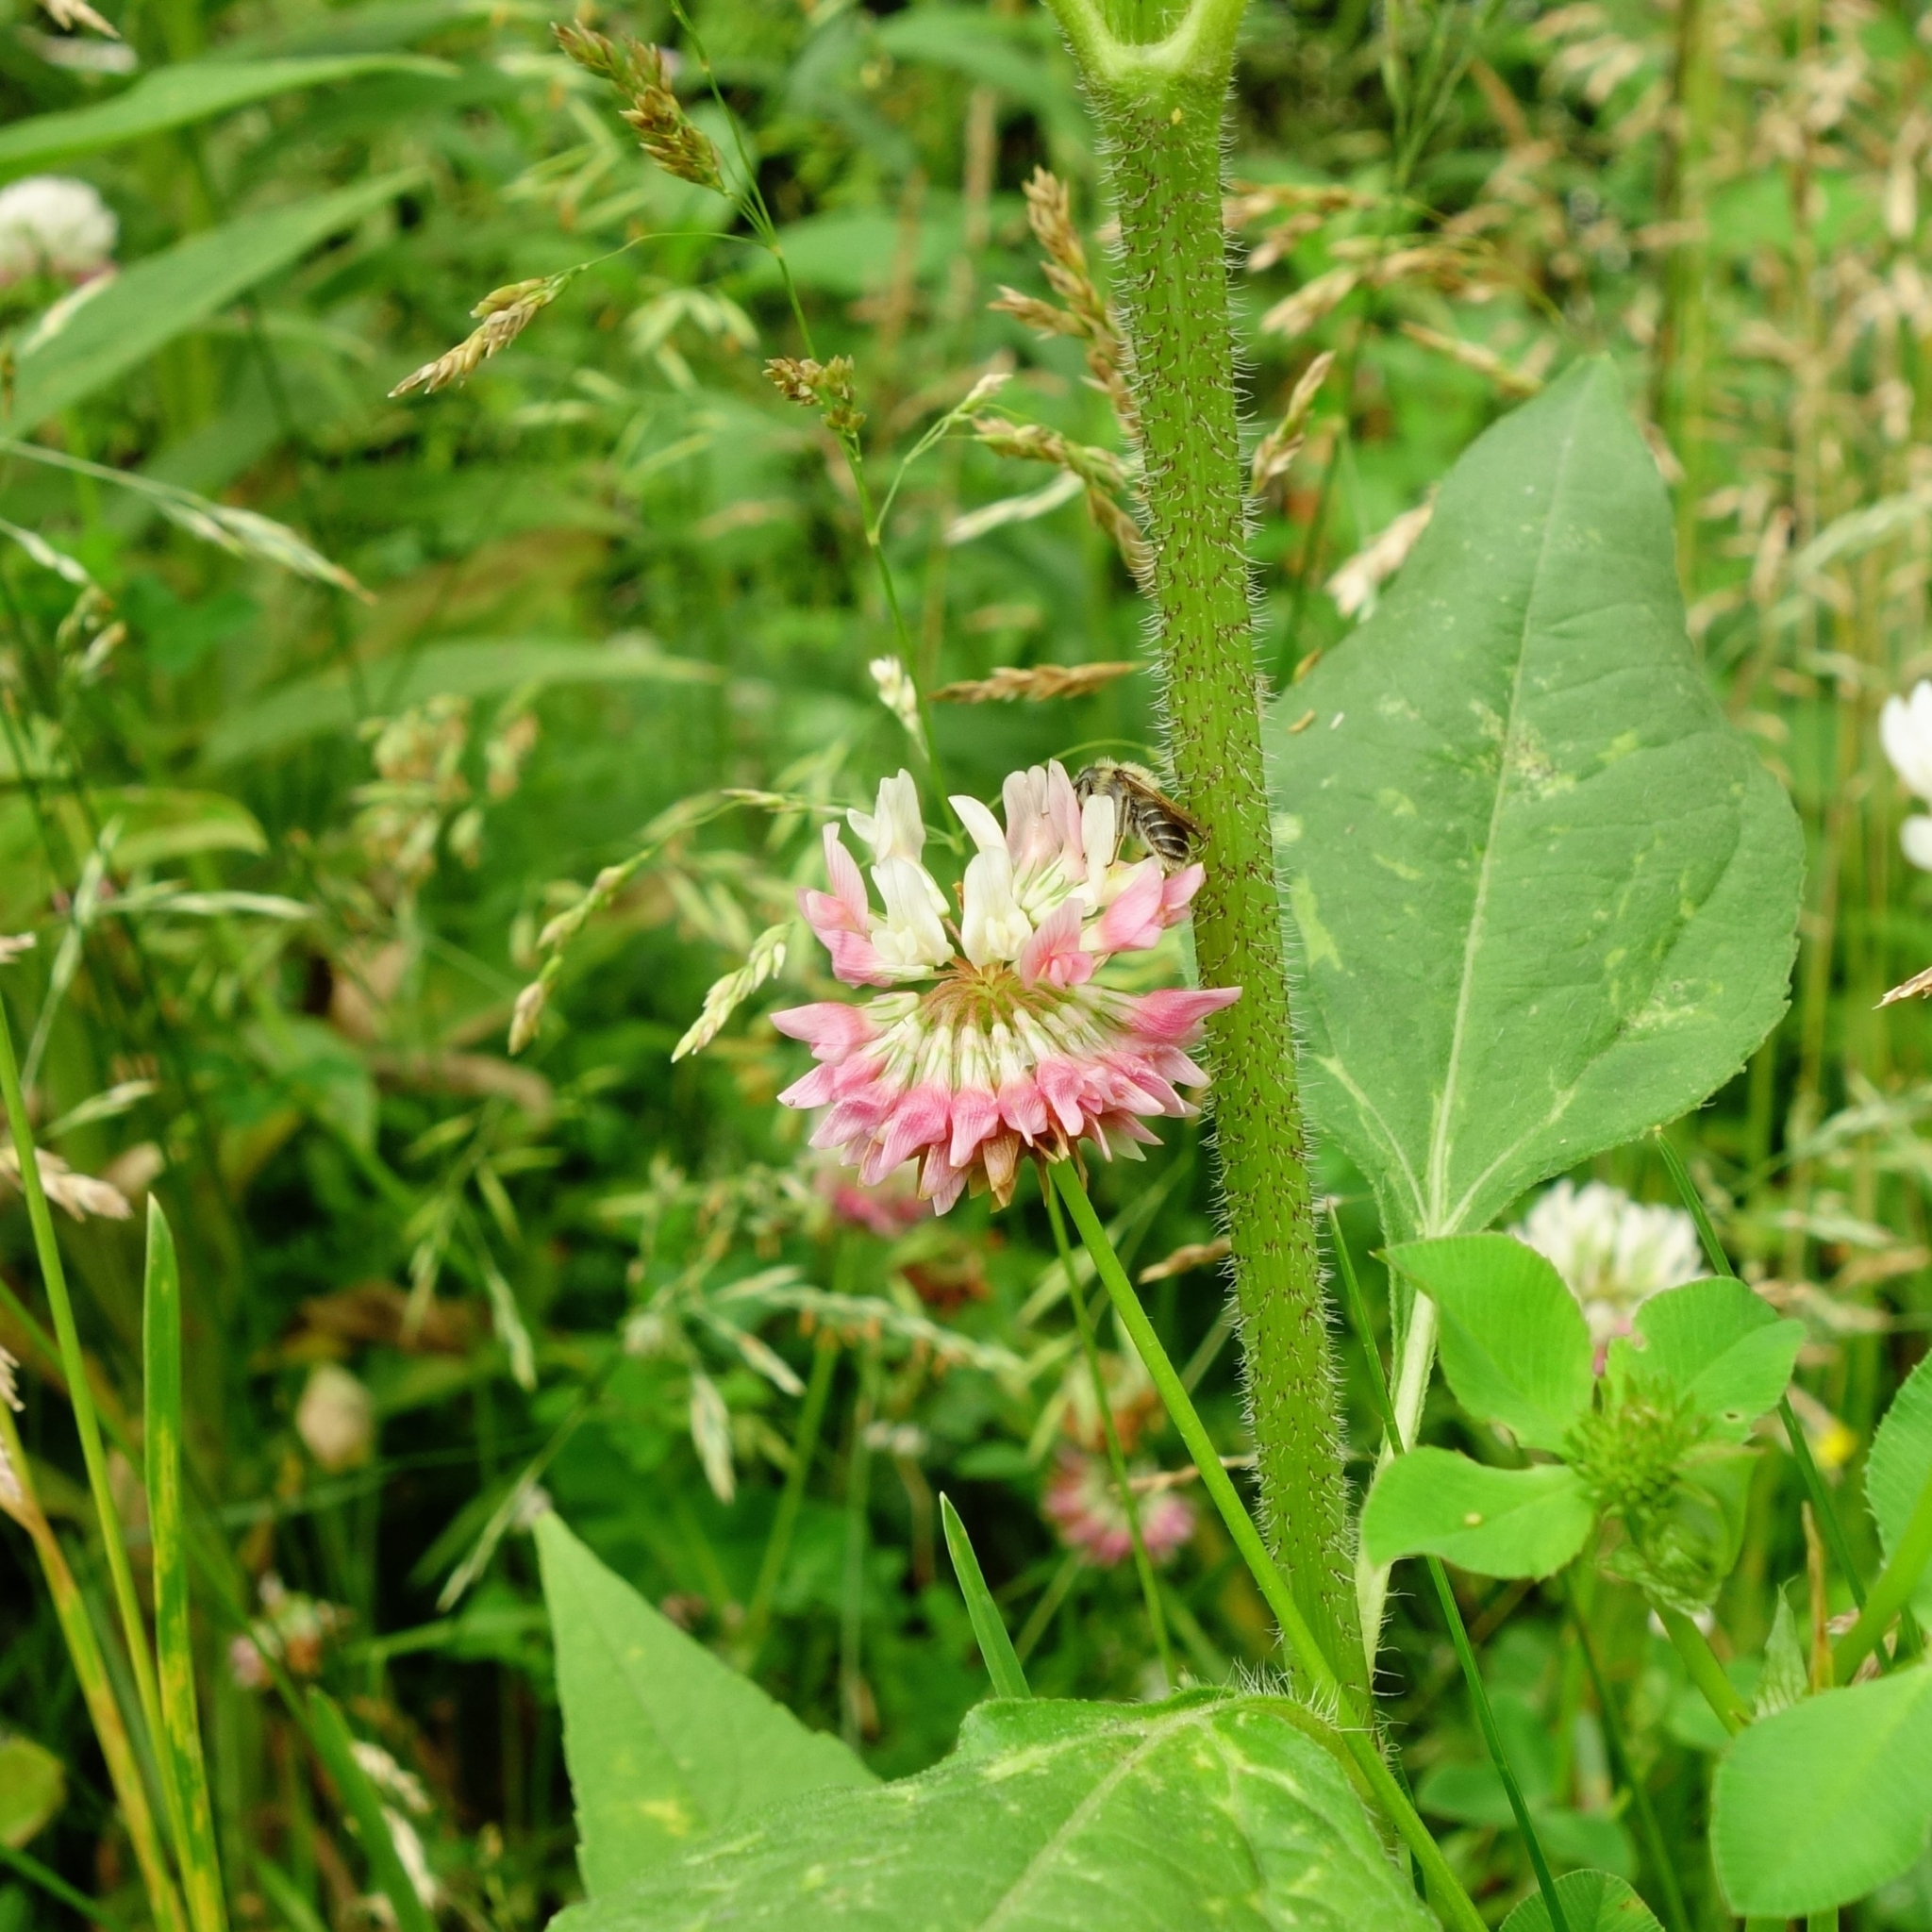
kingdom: Animalia
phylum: Arthropoda
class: Insecta
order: Hymenoptera
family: Andrenidae
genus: Andrena
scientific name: Andrena wilkella
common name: Wilke's mining bee
